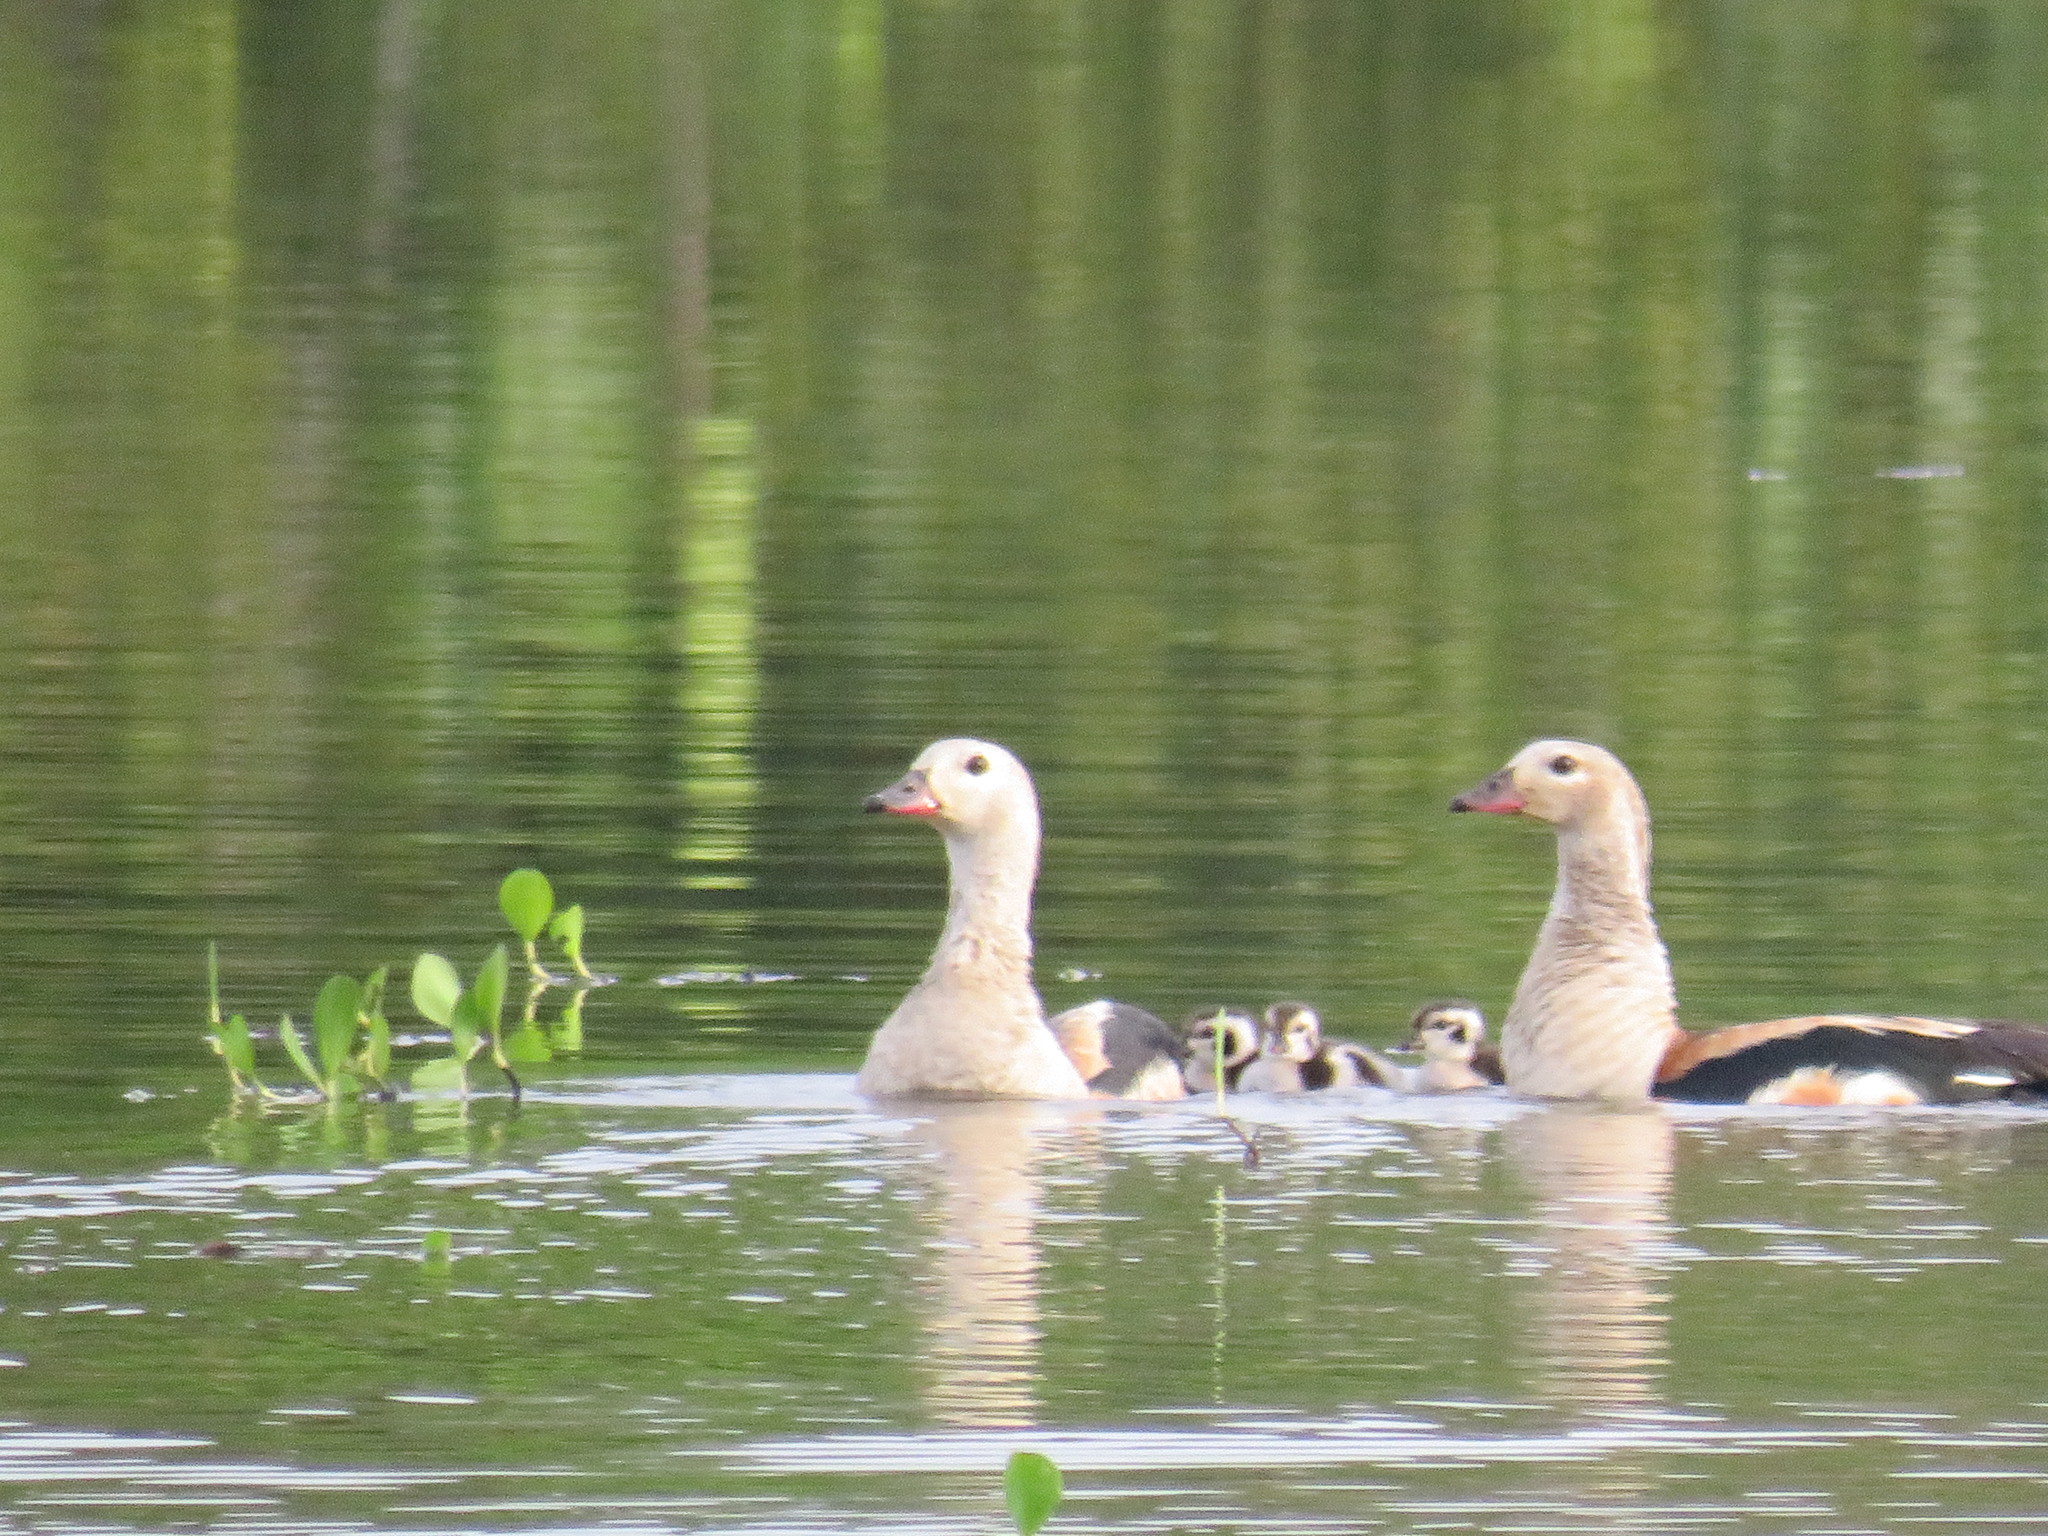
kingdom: Animalia
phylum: Chordata
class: Aves
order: Anseriformes
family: Anatidae
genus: Oressochen
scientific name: Oressochen jubatus
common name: Orinoco goose
